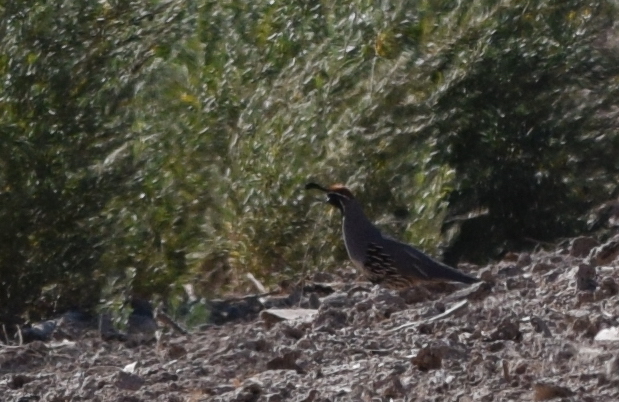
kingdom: Animalia
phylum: Chordata
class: Aves
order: Galliformes
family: Odontophoridae
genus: Callipepla
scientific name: Callipepla gambelii
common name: Gambel's quail
